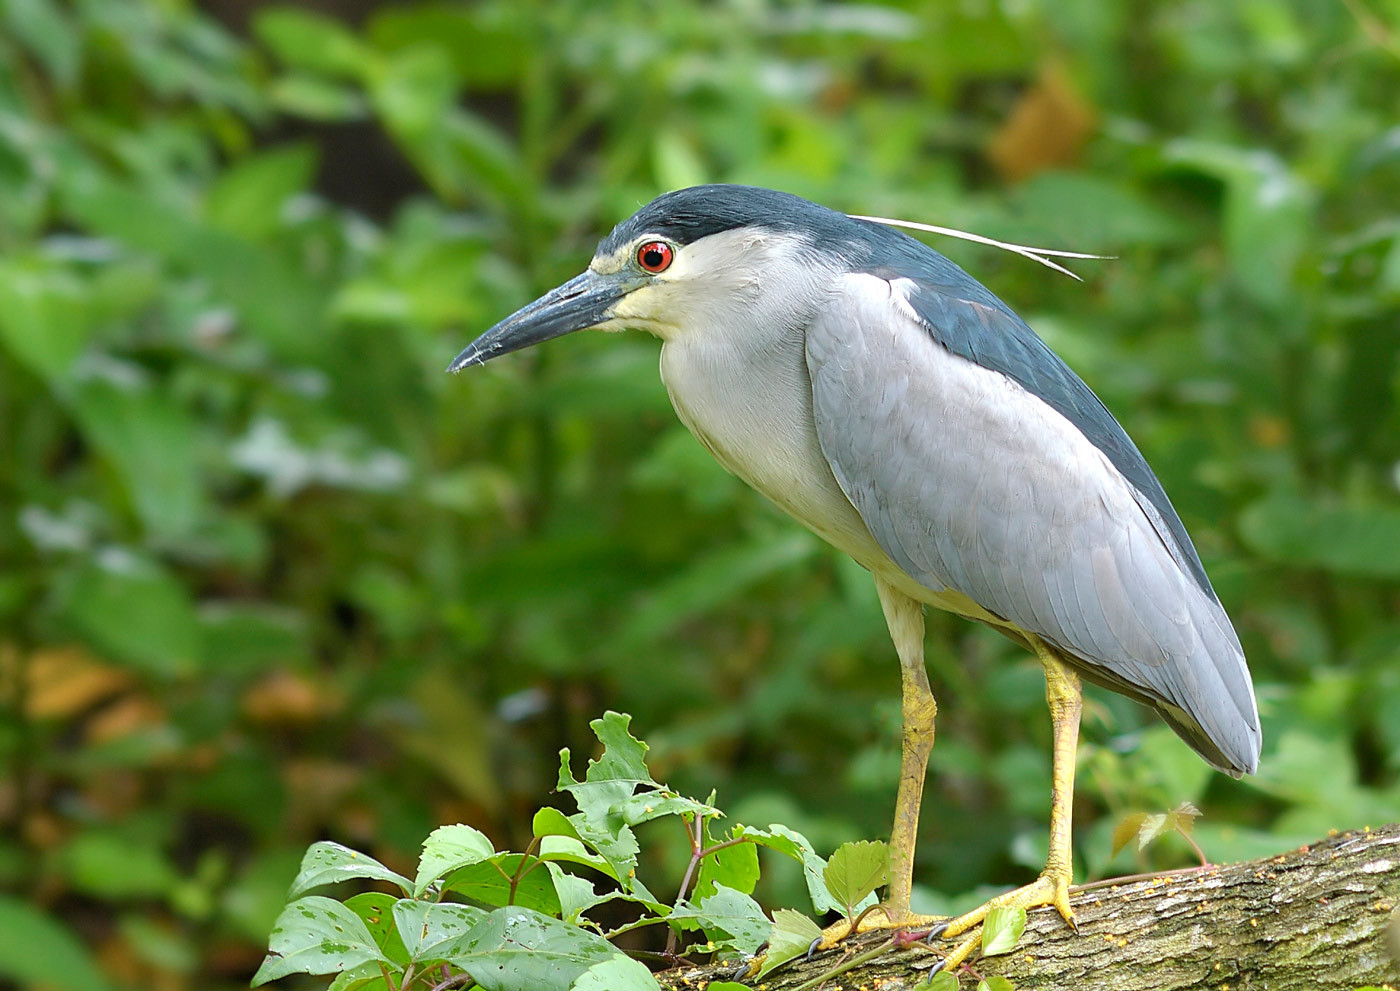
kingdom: Animalia
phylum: Chordata
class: Aves
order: Pelecaniformes
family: Ardeidae
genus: Nycticorax
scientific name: Nycticorax nycticorax
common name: Black-crowned night heron
